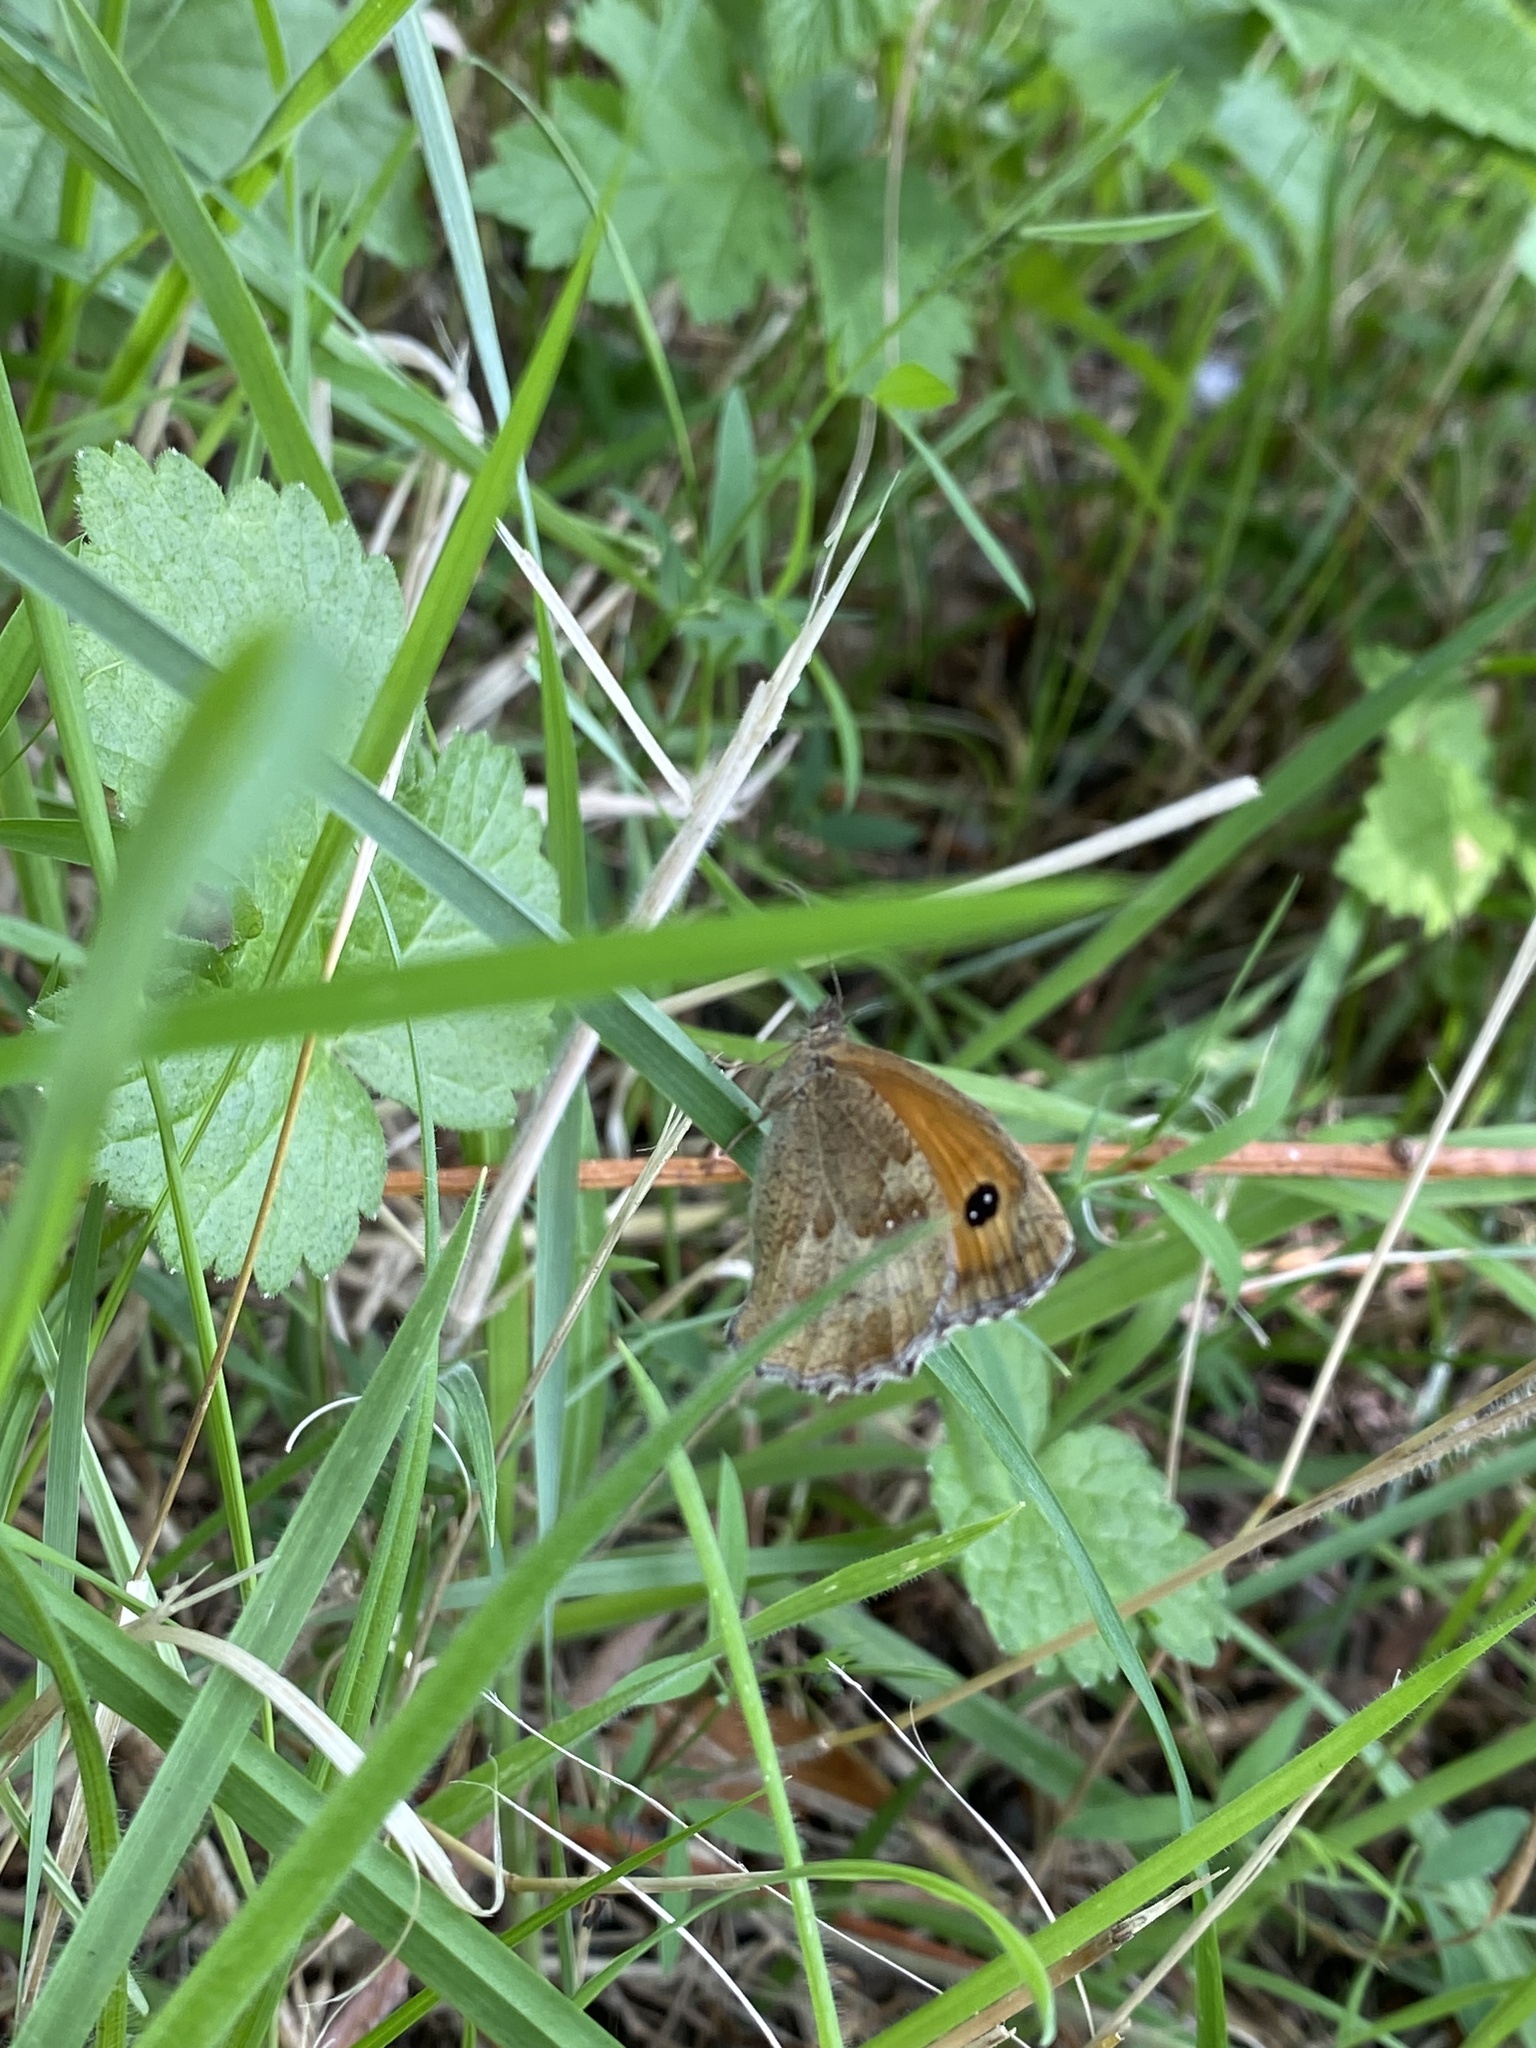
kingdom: Animalia
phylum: Arthropoda
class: Insecta
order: Lepidoptera
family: Nymphalidae
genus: Pyronia
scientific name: Pyronia tithonus
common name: Gatekeeper
